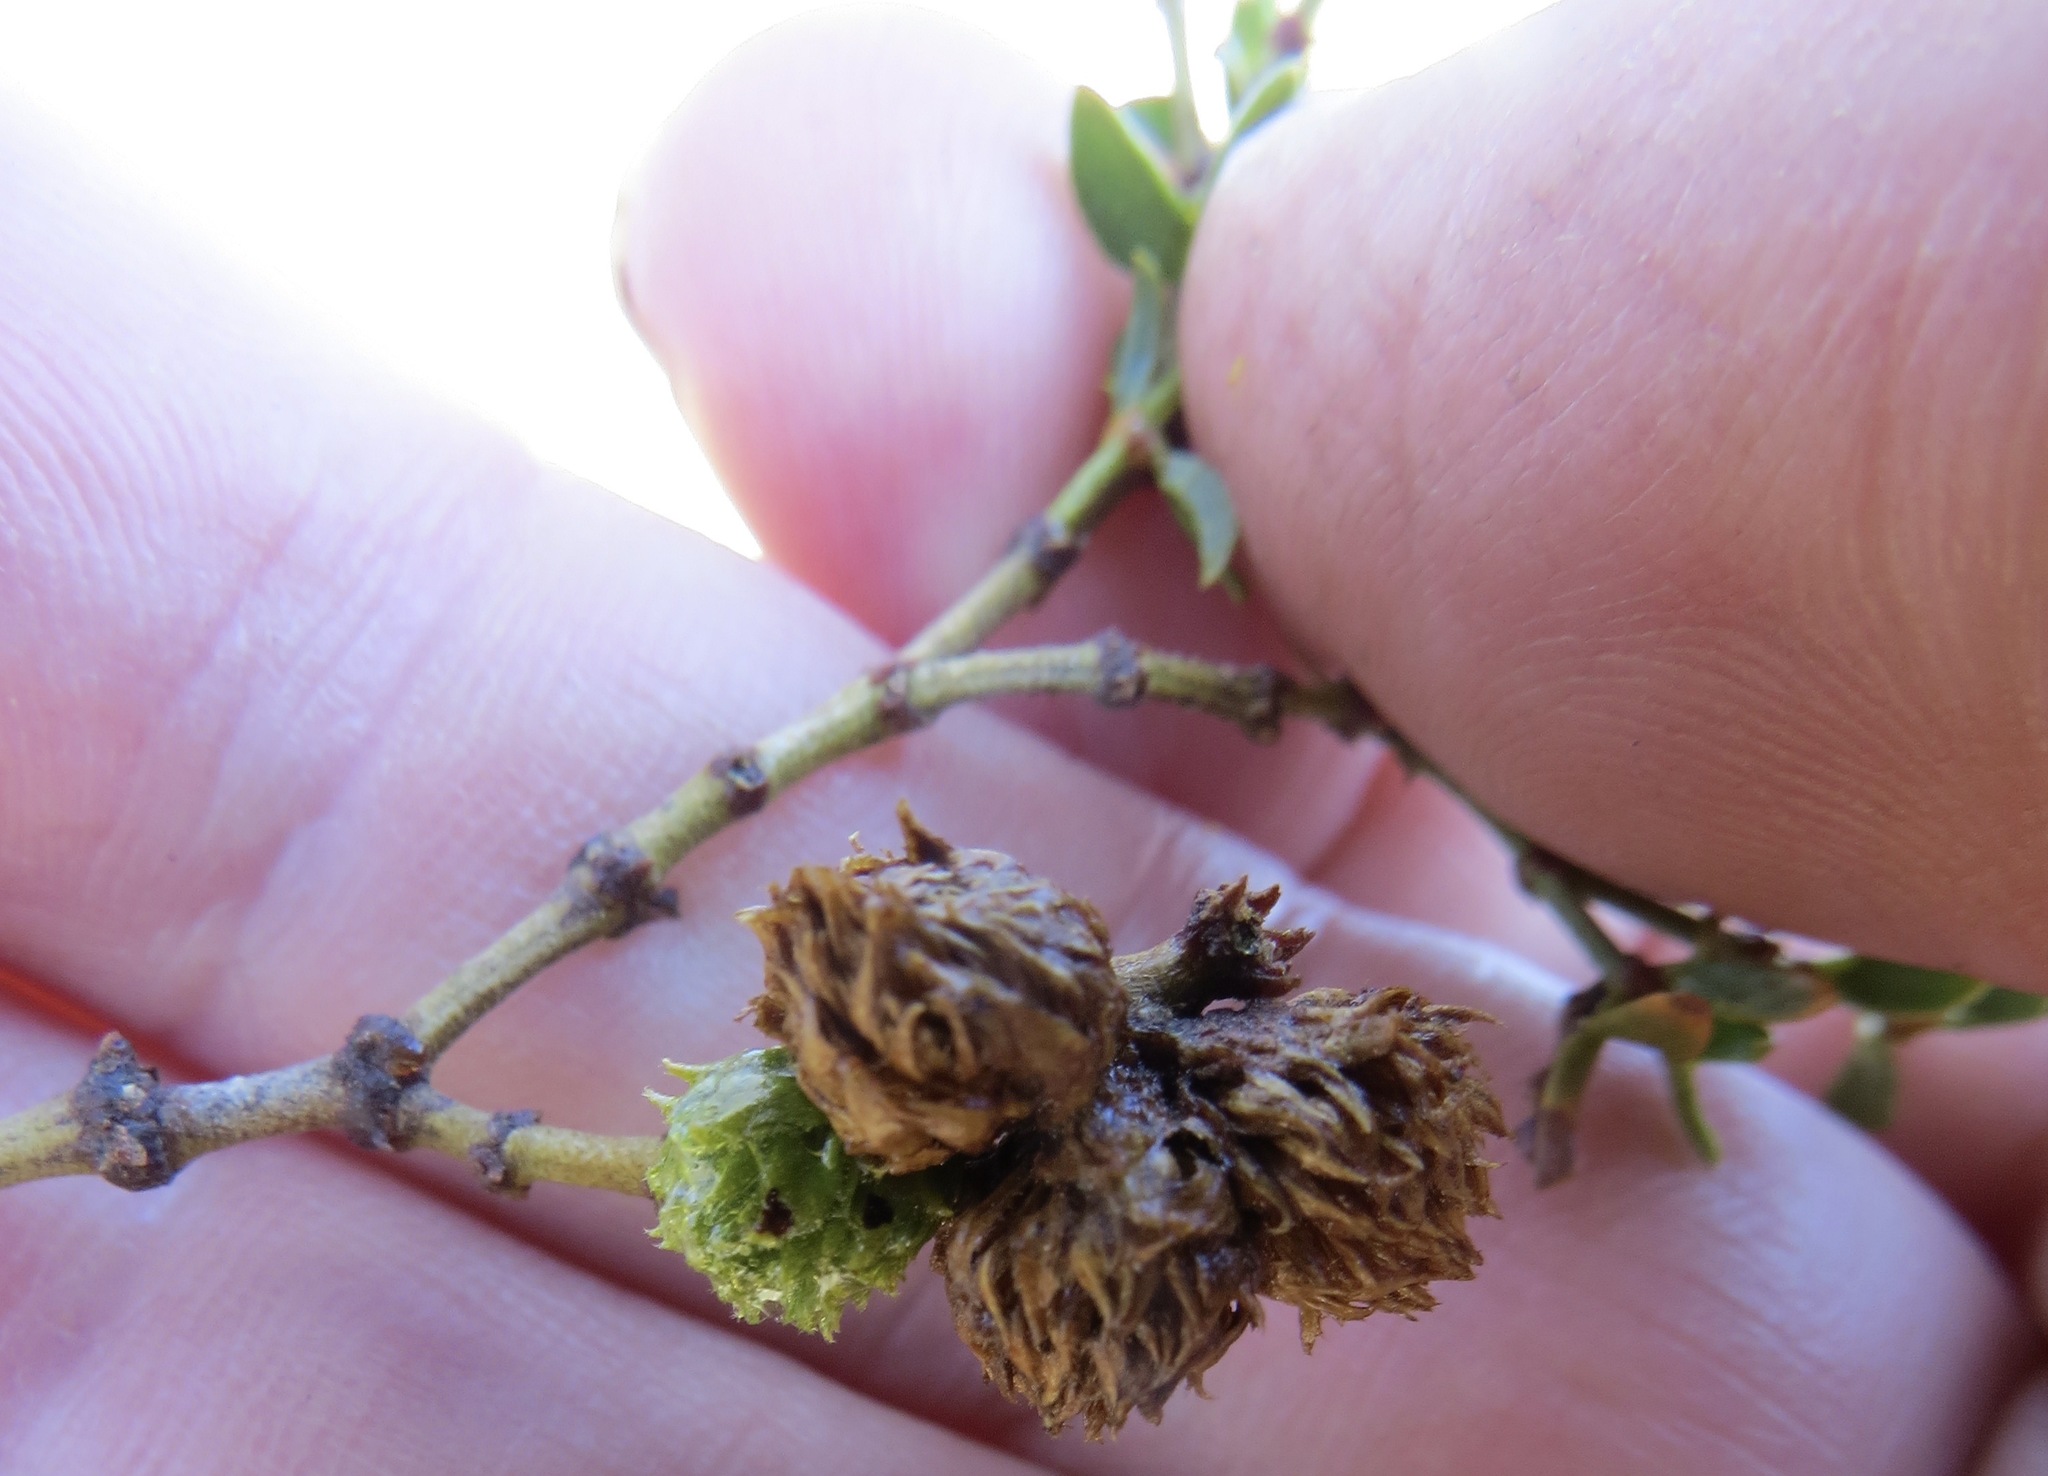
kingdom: Animalia
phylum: Arthropoda
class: Insecta
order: Diptera
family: Cecidomyiidae
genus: Asphondylia
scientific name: Asphondylia foliosa
